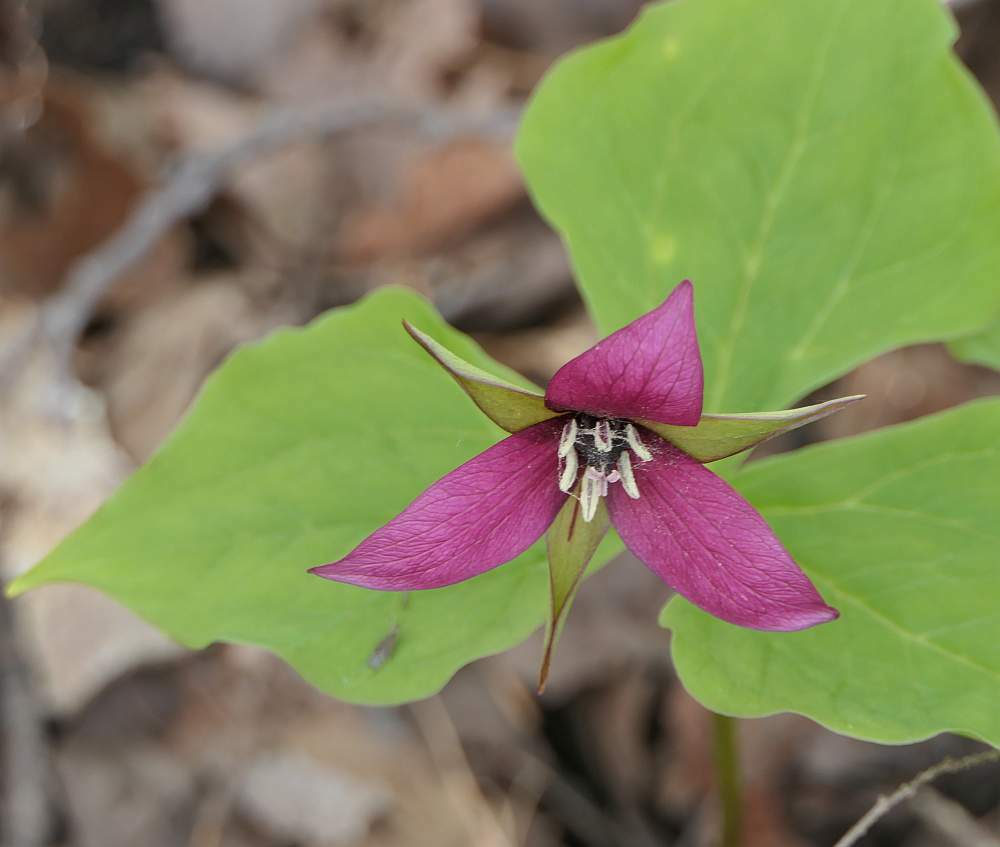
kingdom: Plantae
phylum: Tracheophyta
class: Liliopsida
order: Liliales
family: Melanthiaceae
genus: Trillium
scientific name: Trillium erectum
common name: Purple trillium
